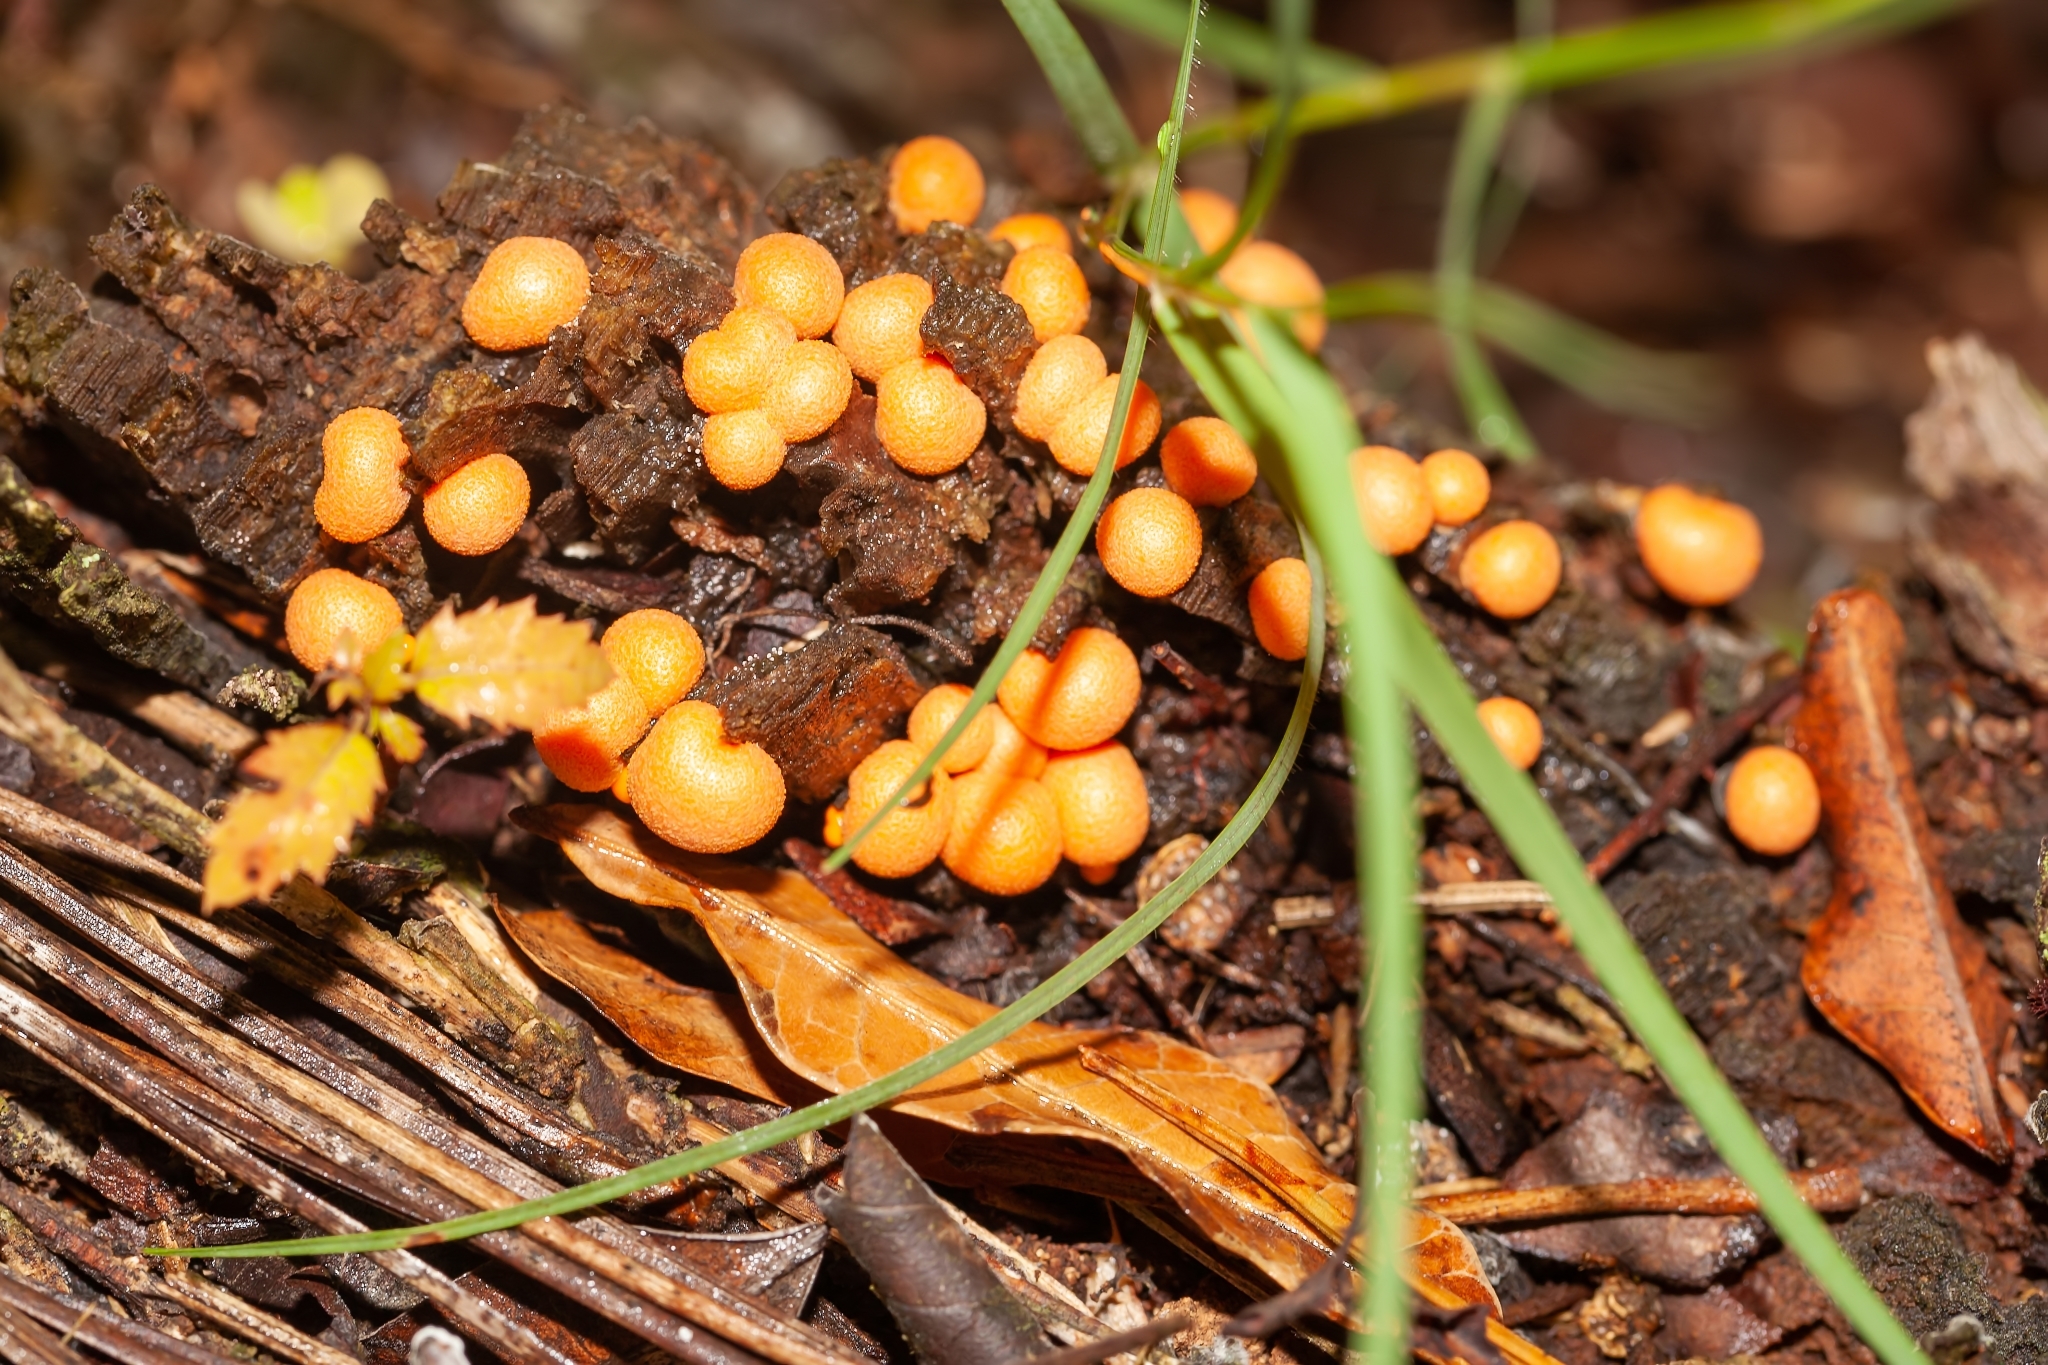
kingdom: Protozoa
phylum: Mycetozoa
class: Myxomycetes
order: Cribrariales
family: Tubiferaceae
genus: Lycogala
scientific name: Lycogala epidendrum
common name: Wolf's milk
